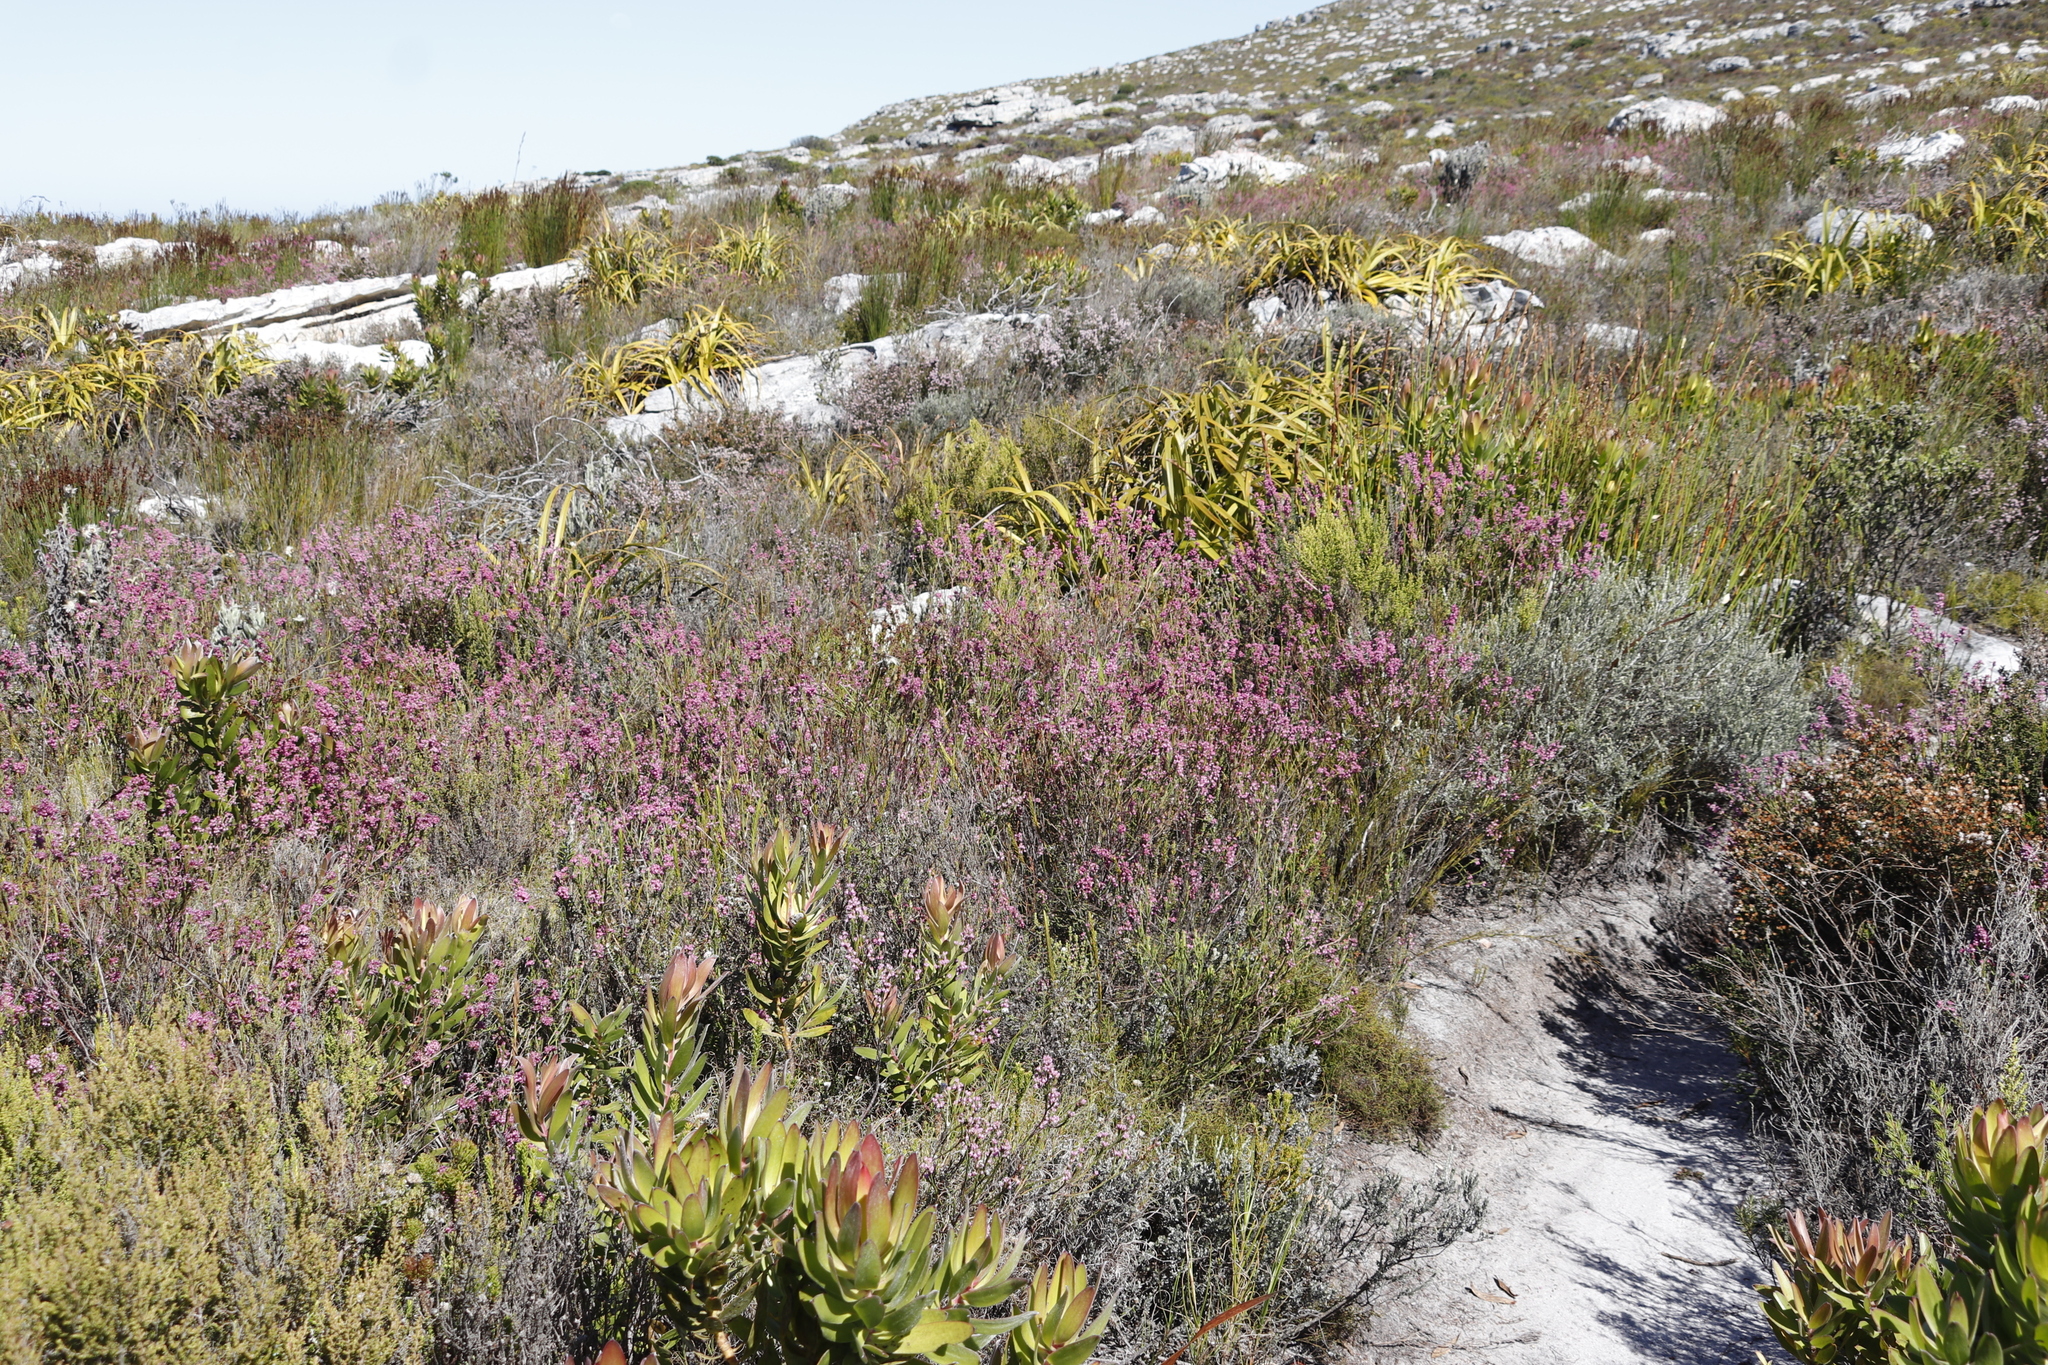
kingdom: Plantae
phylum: Tracheophyta
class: Magnoliopsida
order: Ericales
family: Ericaceae
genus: Erica
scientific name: Erica corifolia
